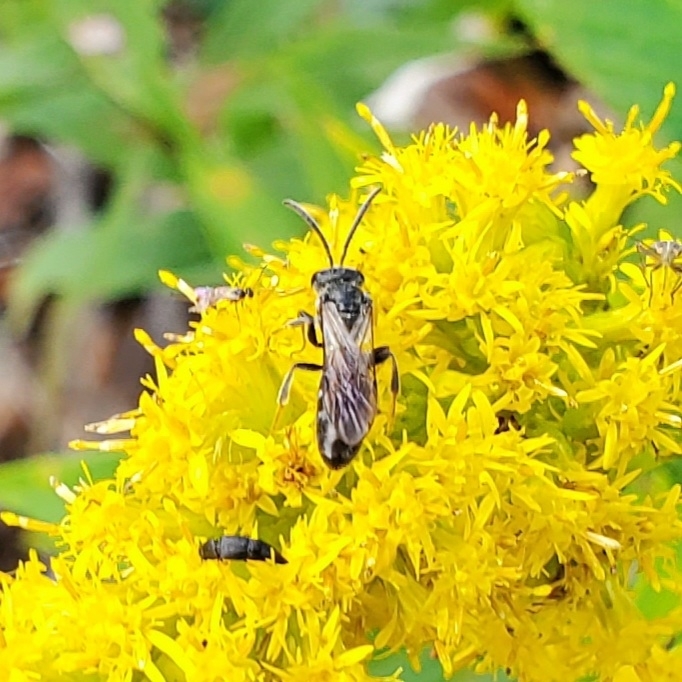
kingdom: Animalia
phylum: Arthropoda
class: Insecta
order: Hymenoptera
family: Halictidae
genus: Lasioglossum
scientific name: Lasioglossum fuscipenne
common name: Brown-winged sweat bee
